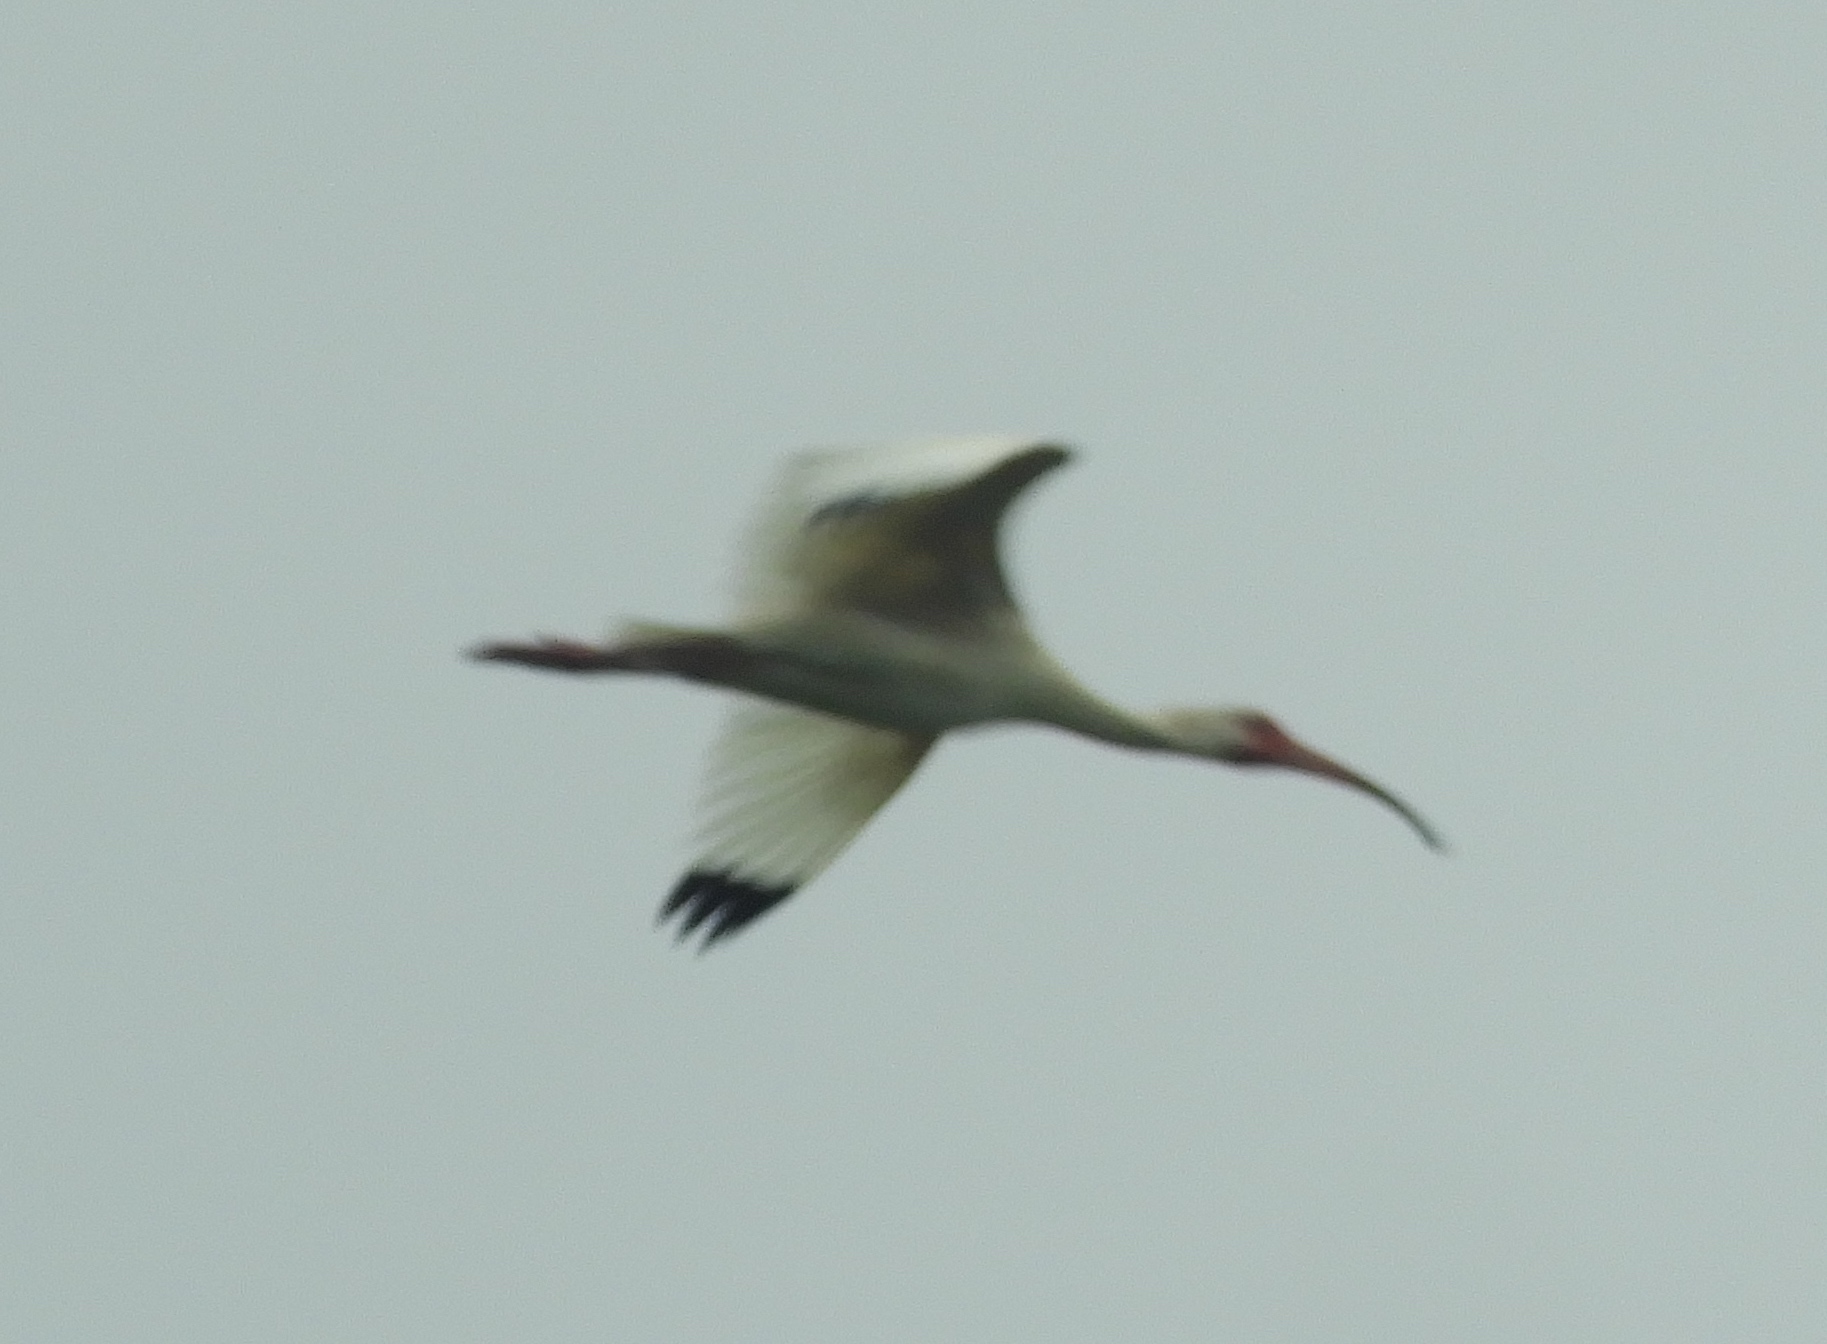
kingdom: Animalia
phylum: Chordata
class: Aves
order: Pelecaniformes
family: Threskiornithidae
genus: Eudocimus
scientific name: Eudocimus albus
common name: White ibis
